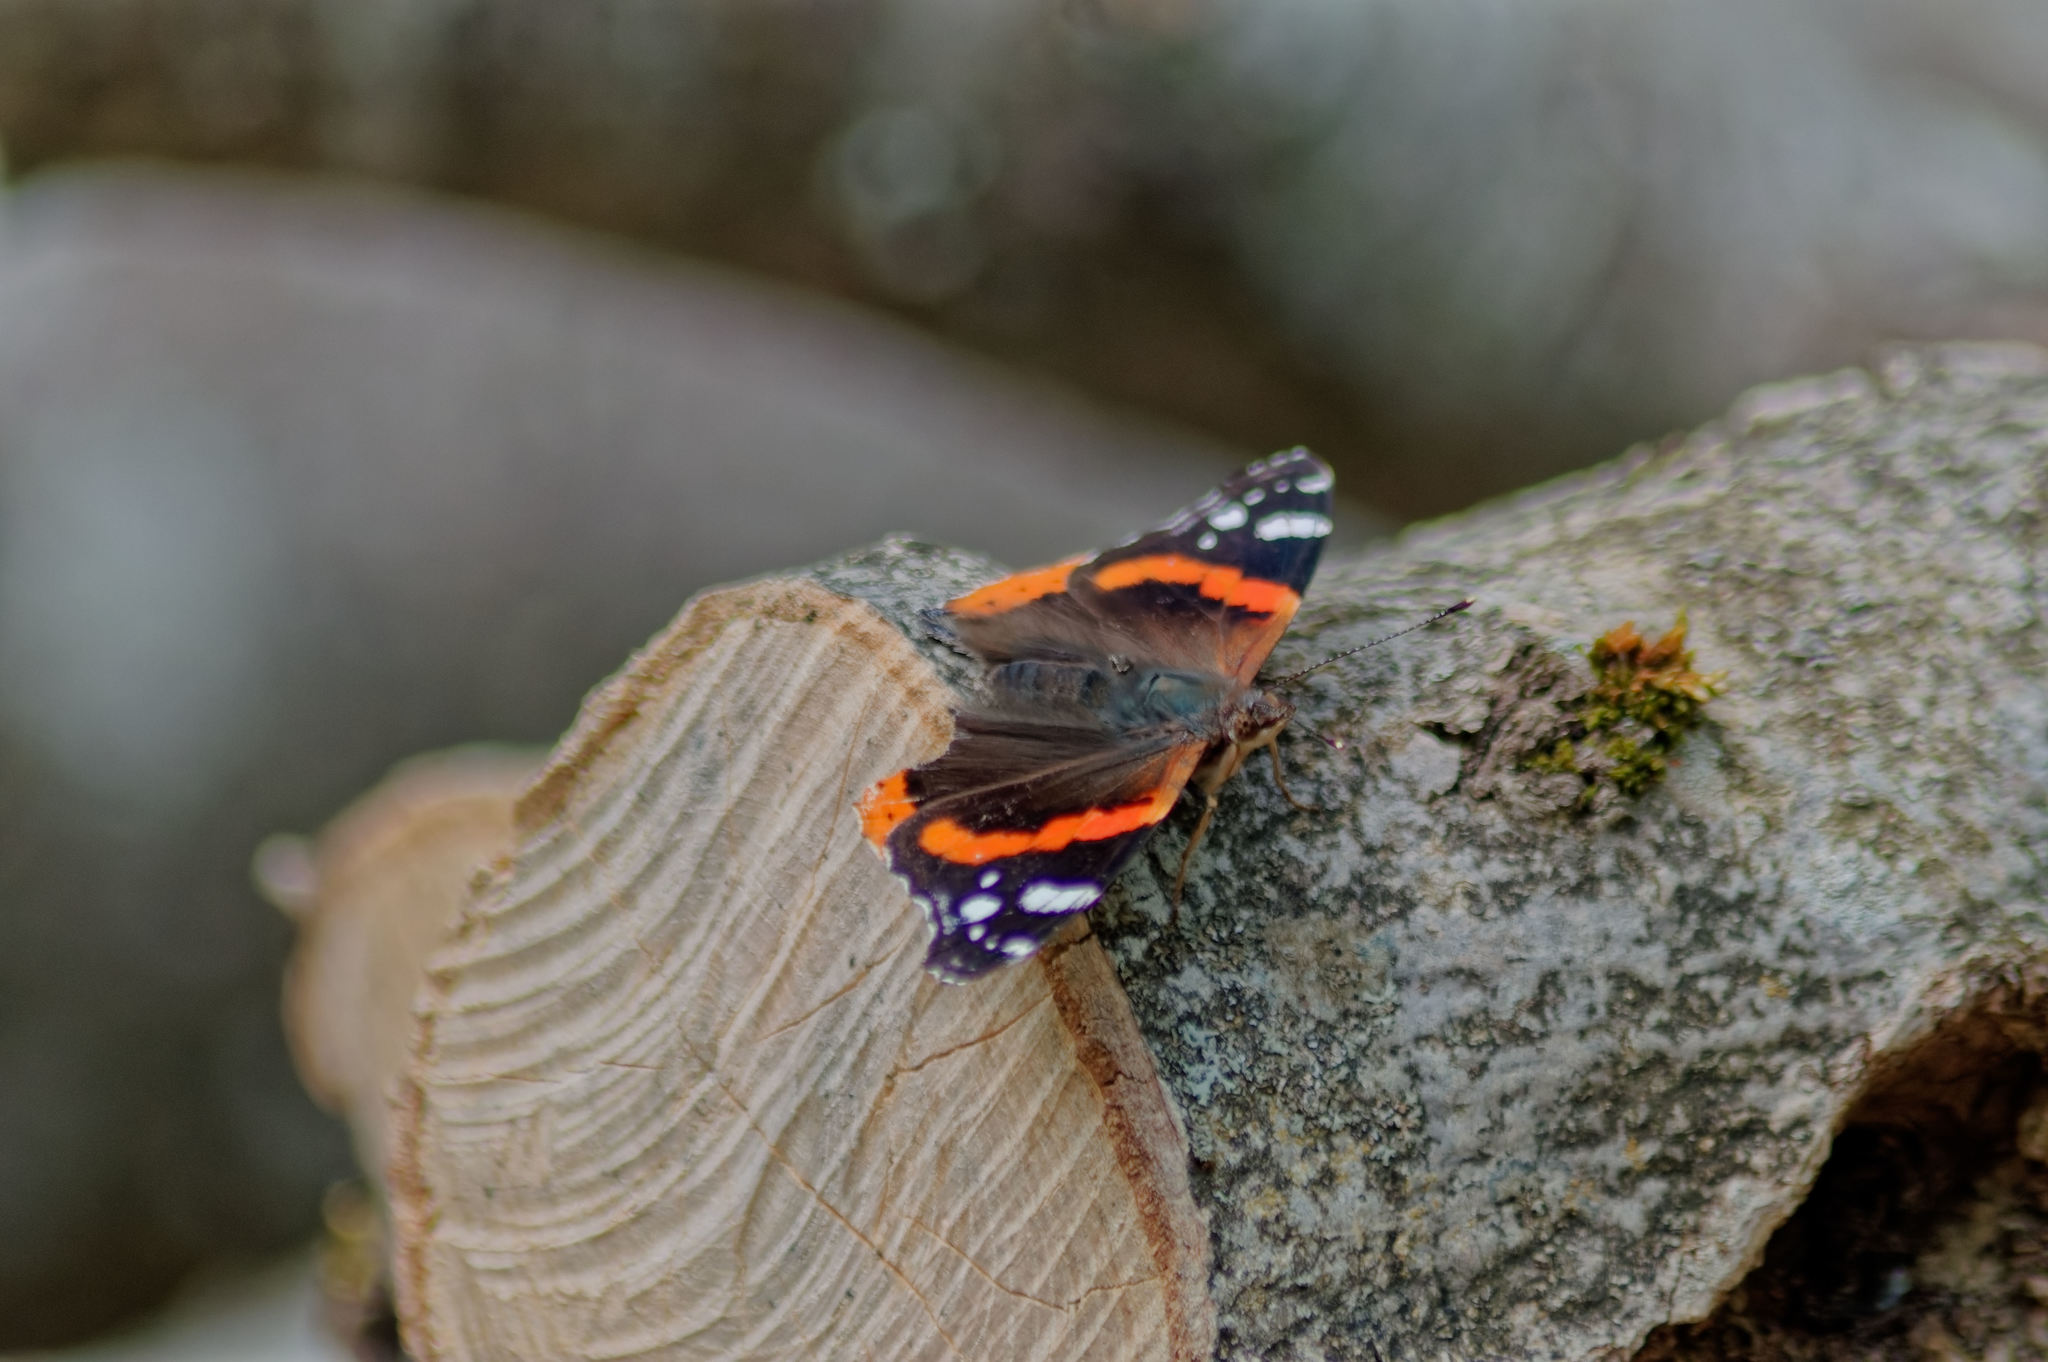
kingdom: Animalia
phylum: Arthropoda
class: Insecta
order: Lepidoptera
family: Nymphalidae
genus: Vanessa
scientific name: Vanessa atalanta
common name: Red admiral
